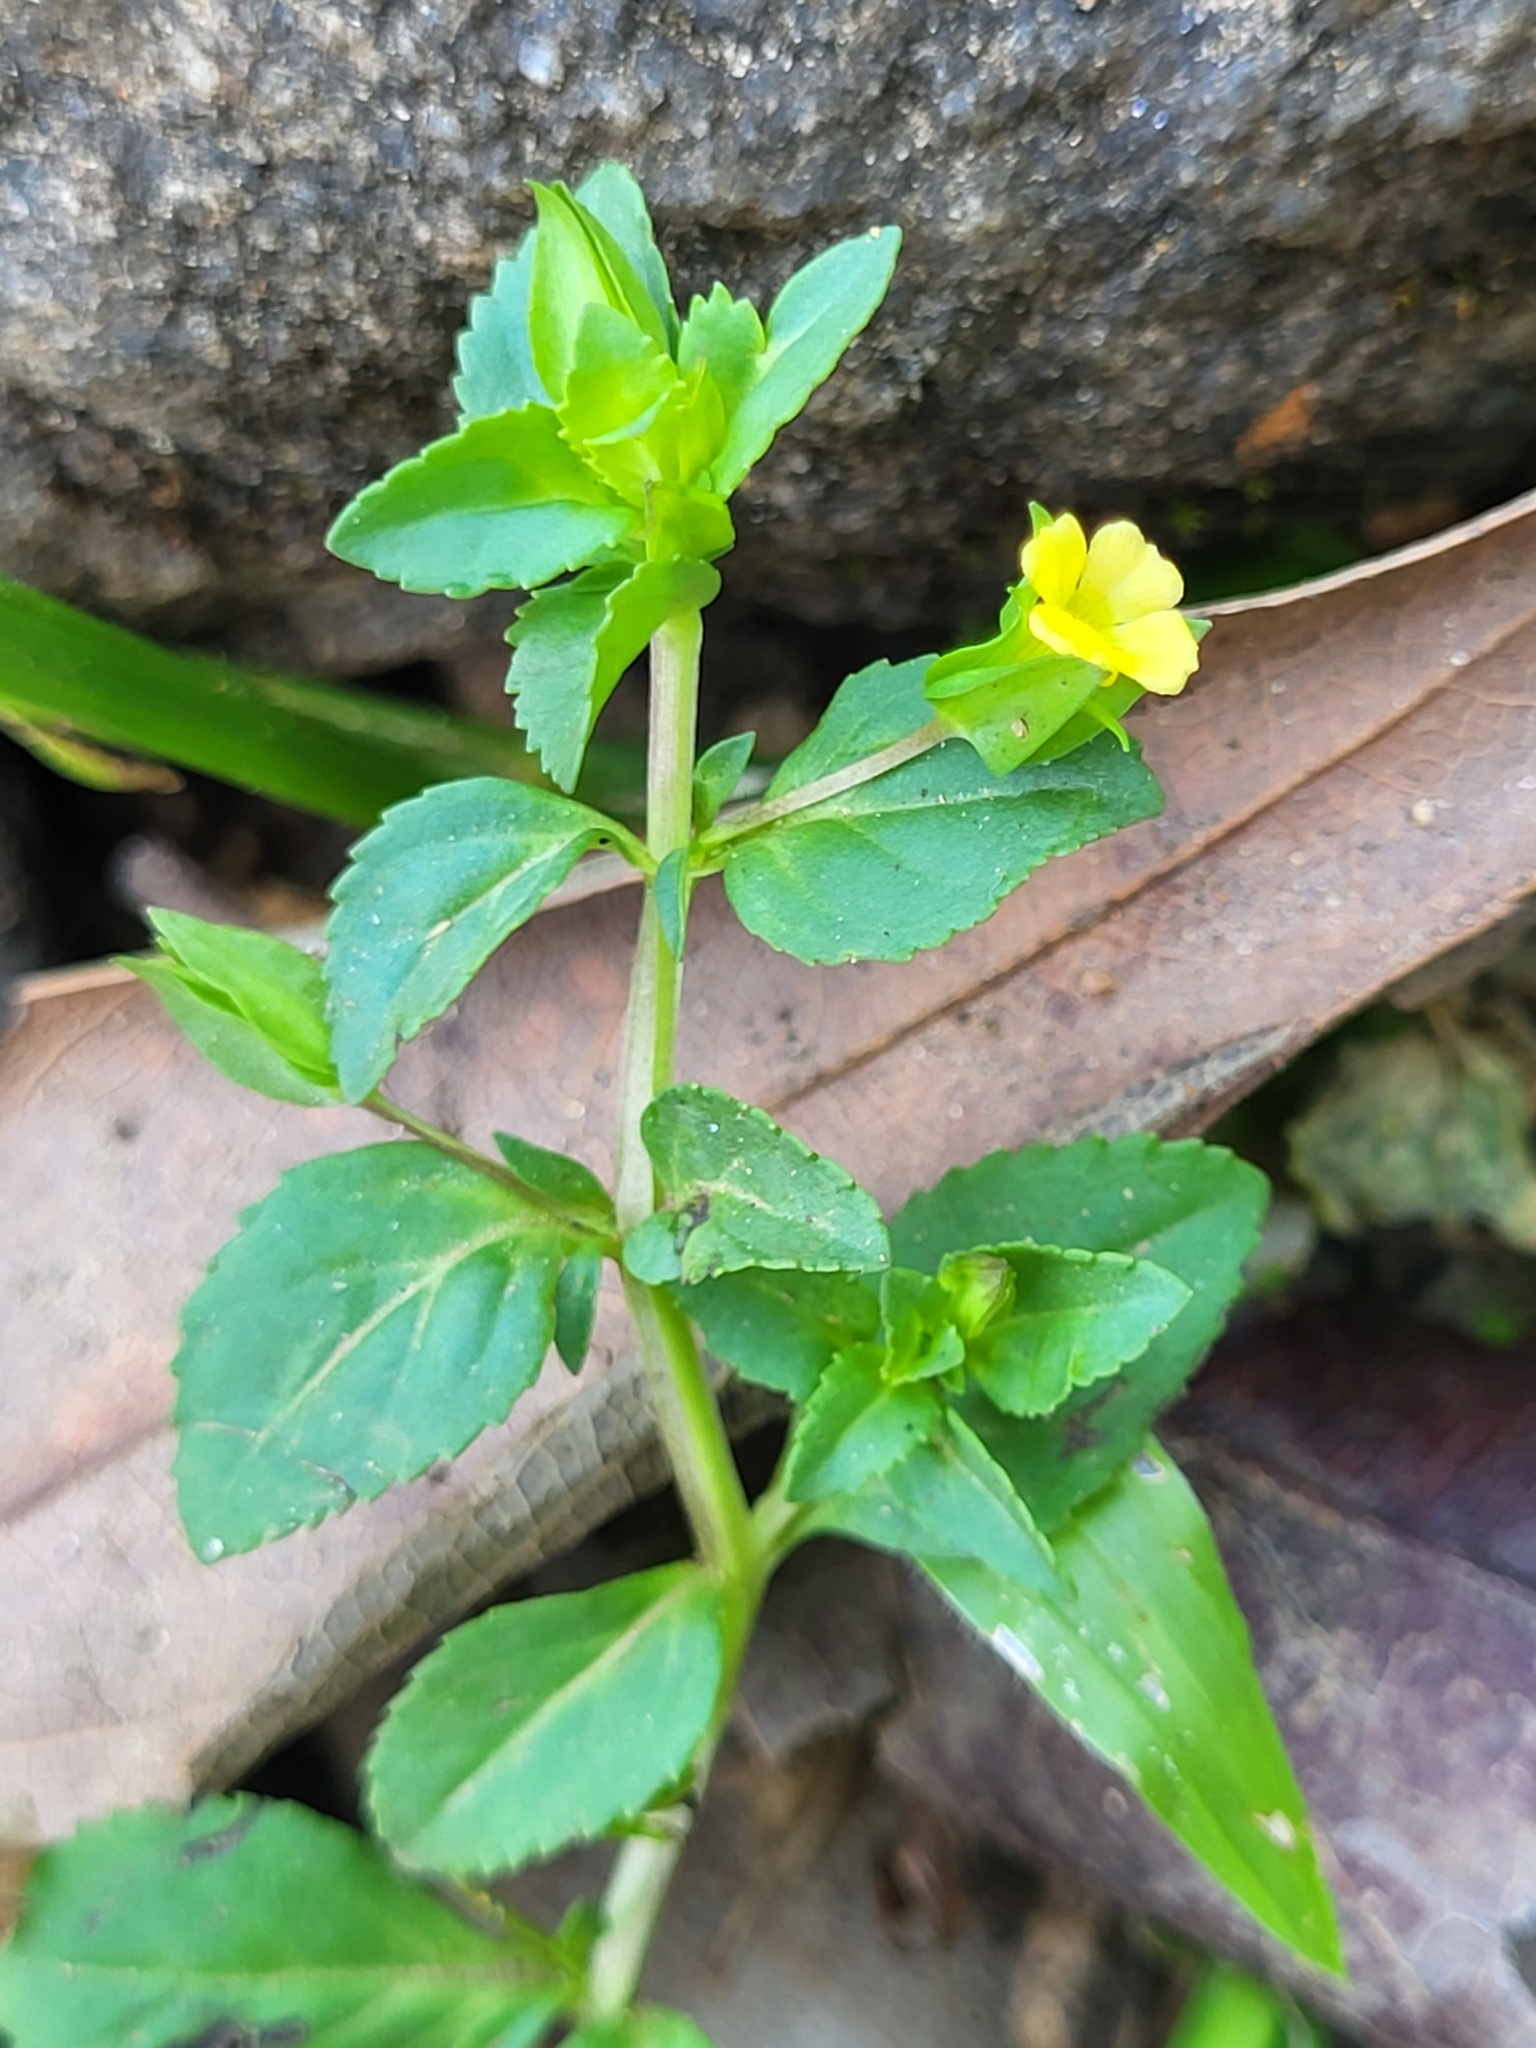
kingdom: Plantae
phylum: Tracheophyta
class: Magnoliopsida
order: Lamiales
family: Plantaginaceae
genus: Mecardonia
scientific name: Mecardonia procumbens
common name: Baby jump-up
